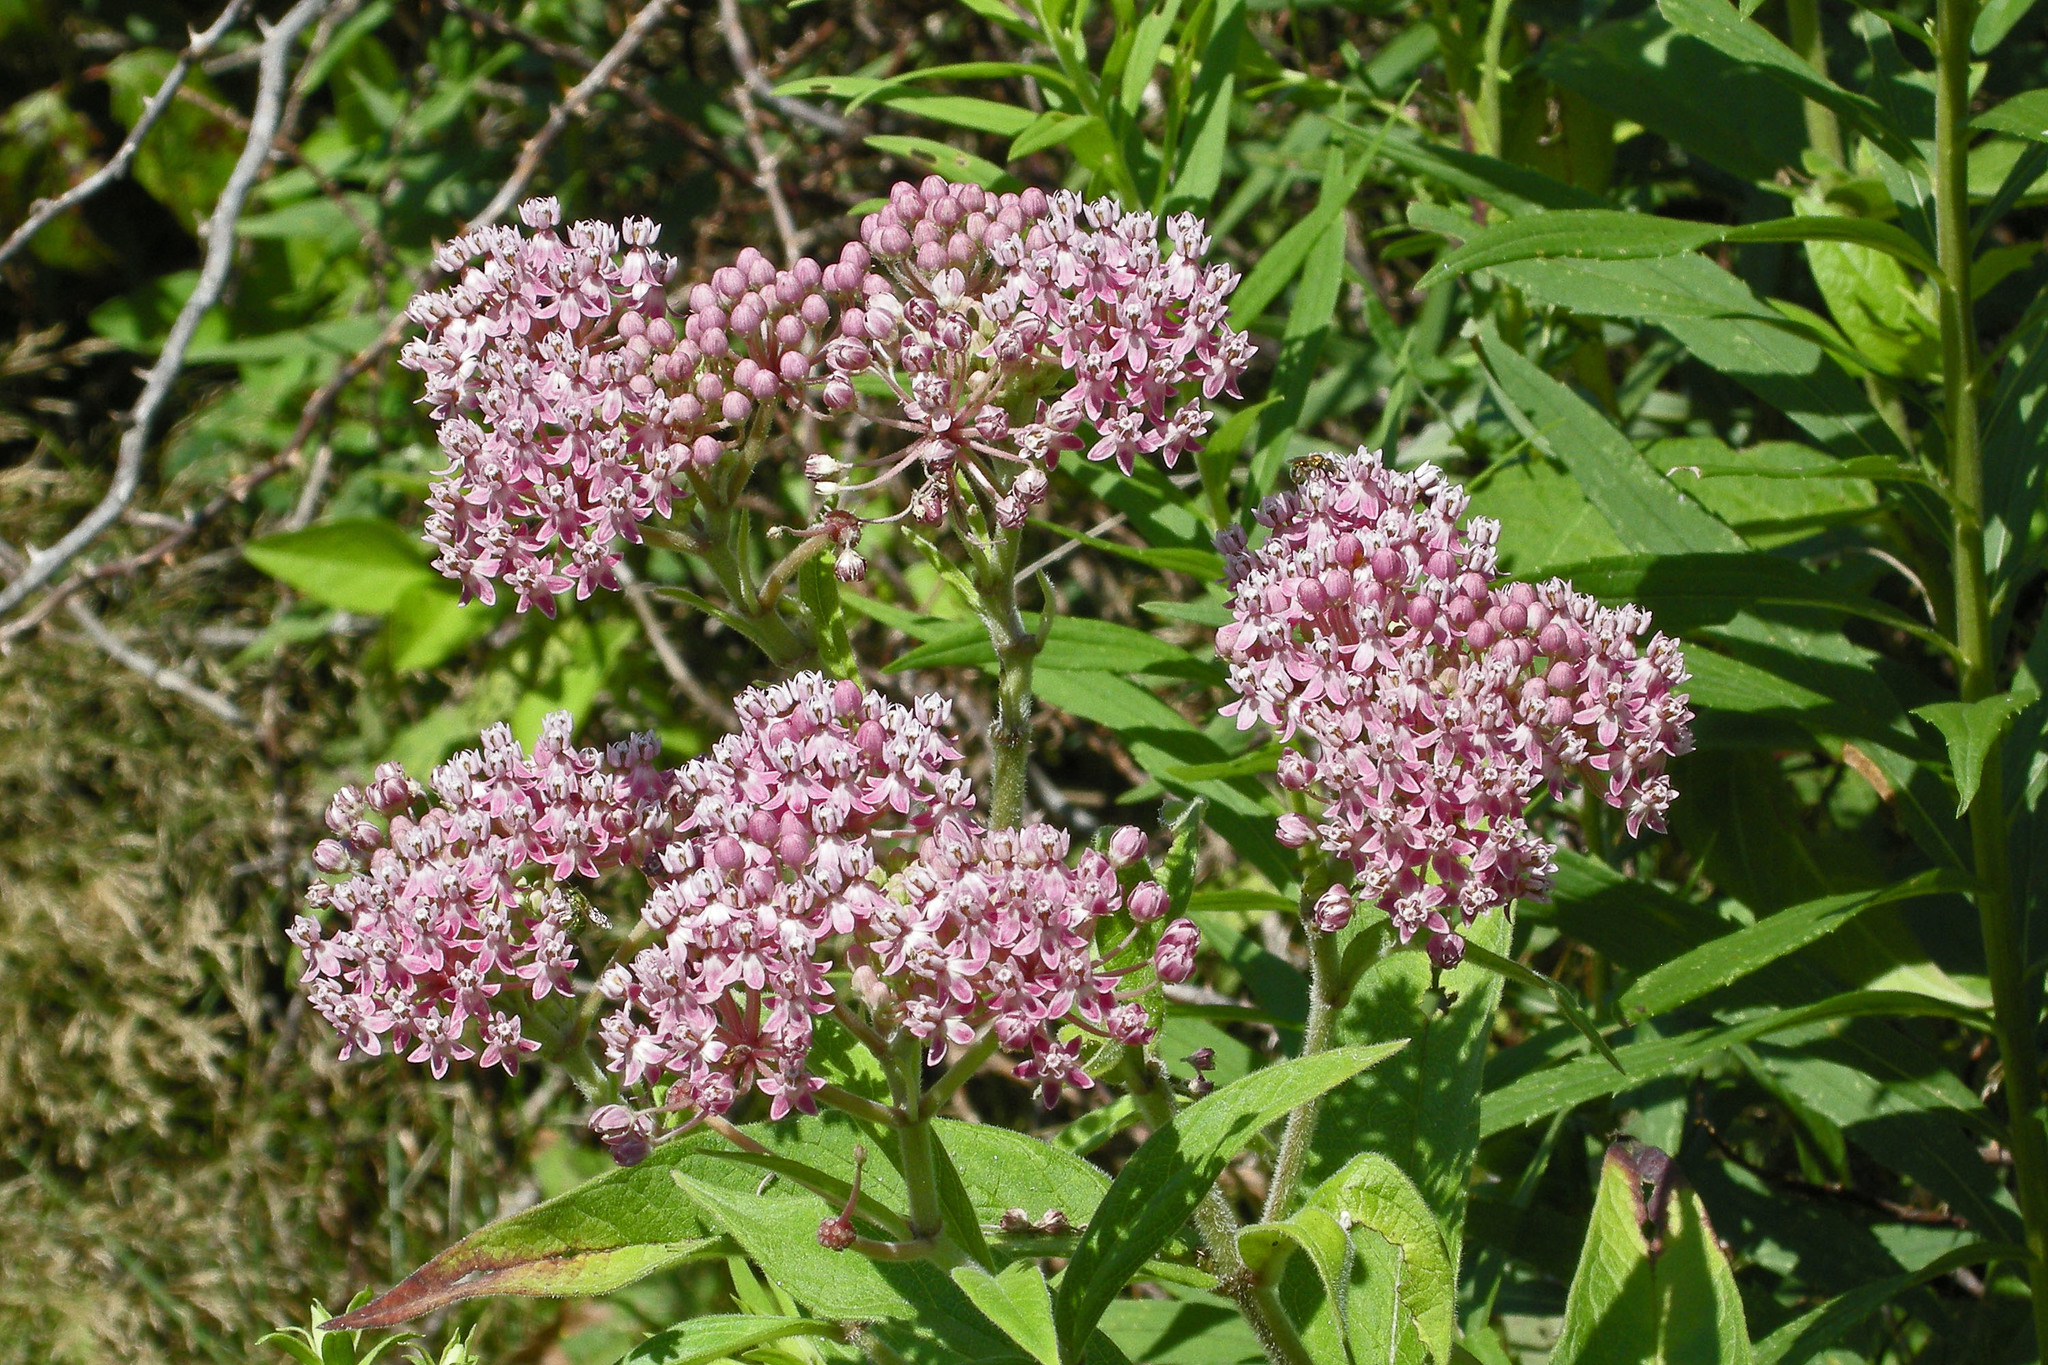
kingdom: Plantae
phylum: Tracheophyta
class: Magnoliopsida
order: Gentianales
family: Apocynaceae
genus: Asclepias
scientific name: Asclepias incarnata
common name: Swamp milkweed
